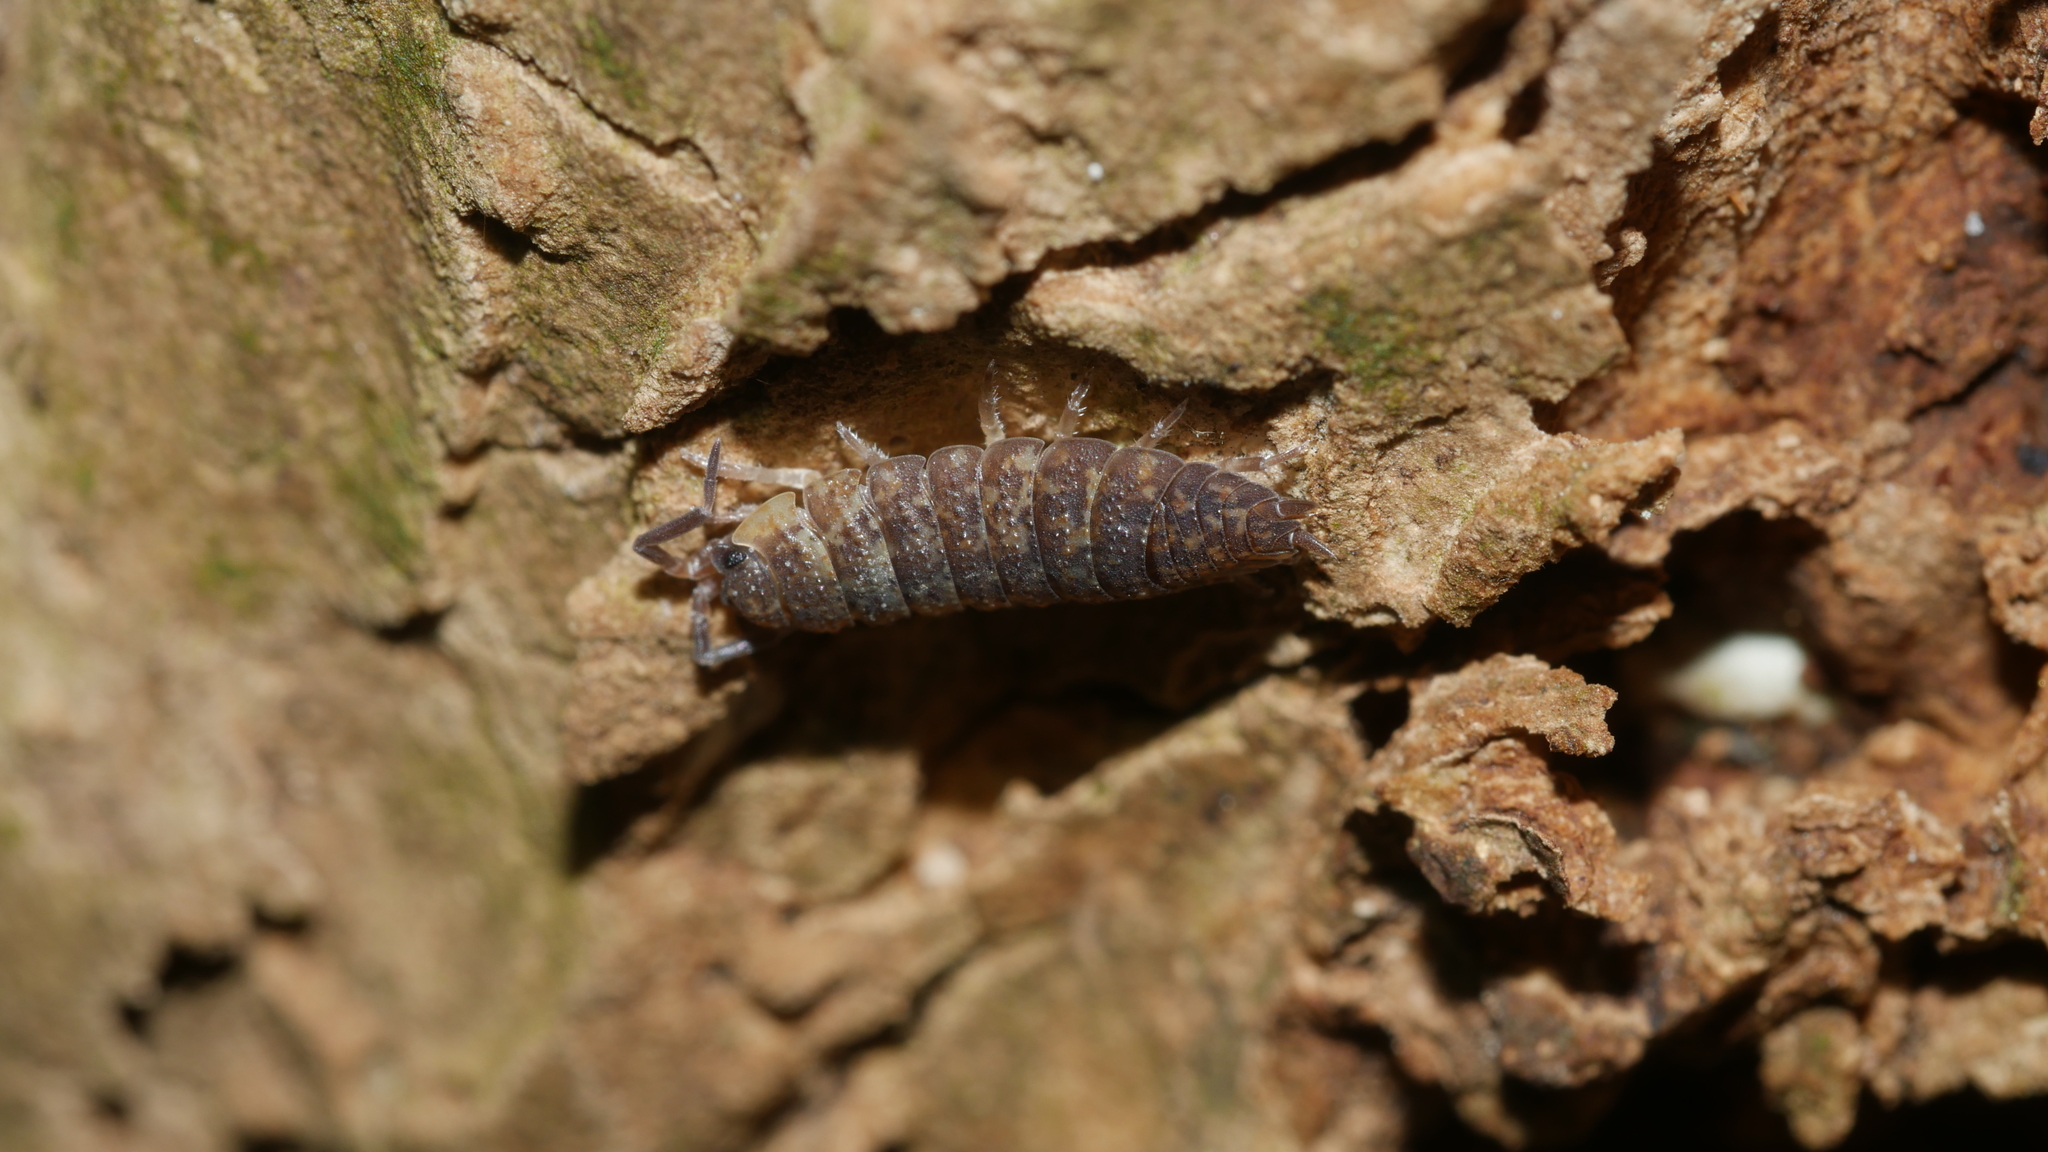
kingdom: Animalia
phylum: Arthropoda
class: Malacostraca
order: Isopoda
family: Porcellionidae
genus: Porcellio
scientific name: Porcellio scaber
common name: Common rough woodlouse
